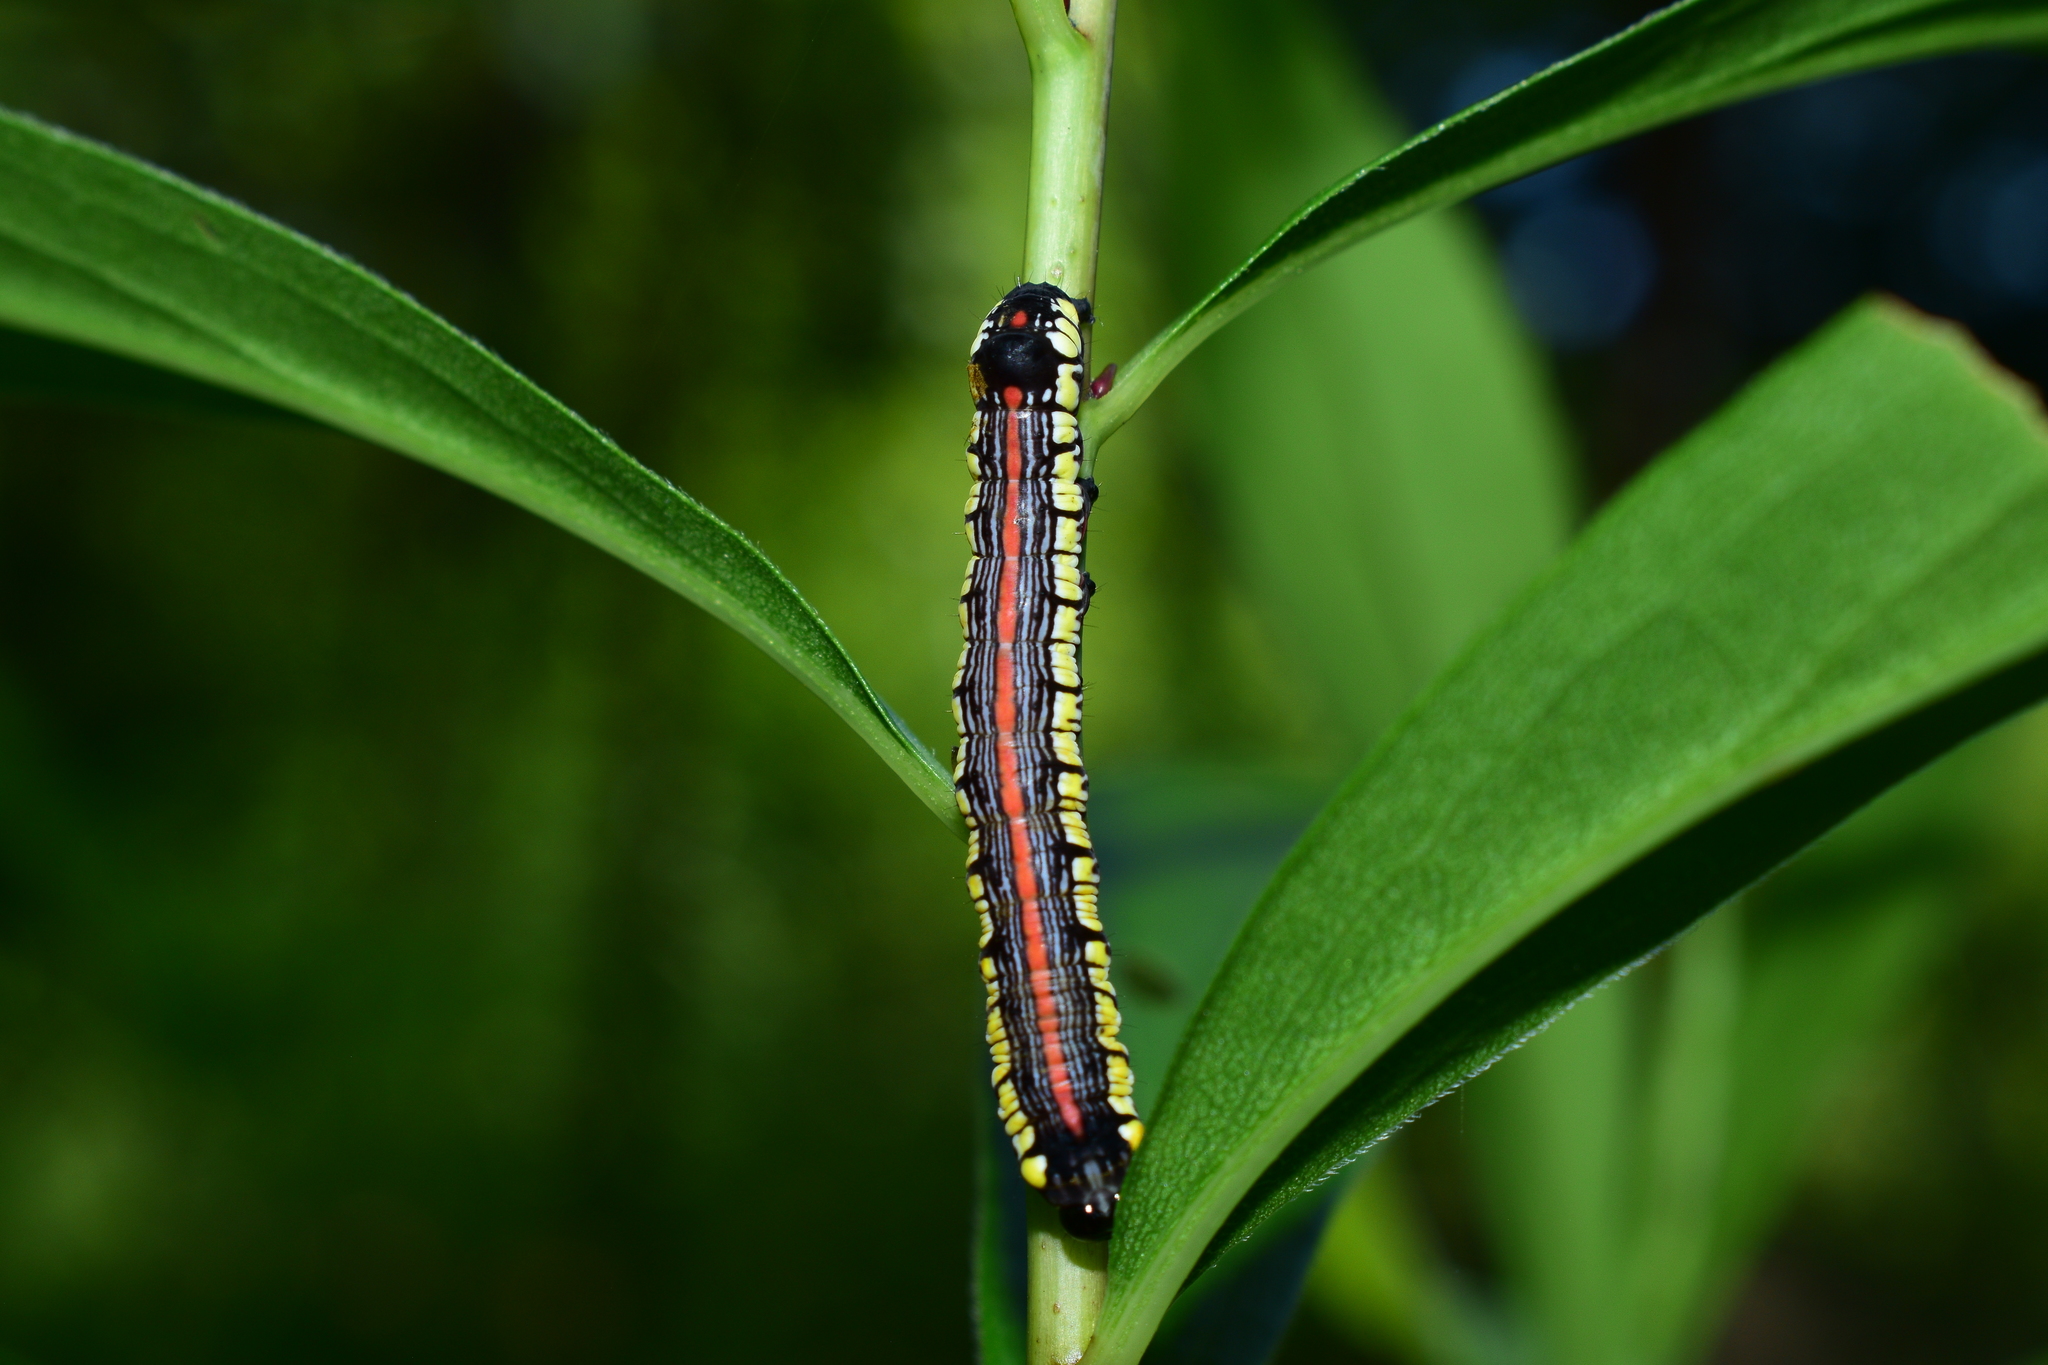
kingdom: Animalia
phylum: Arthropoda
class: Insecta
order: Lepidoptera
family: Noctuidae
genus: Cucullia
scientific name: Cucullia convexipennis
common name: Brown-hooded owlet
